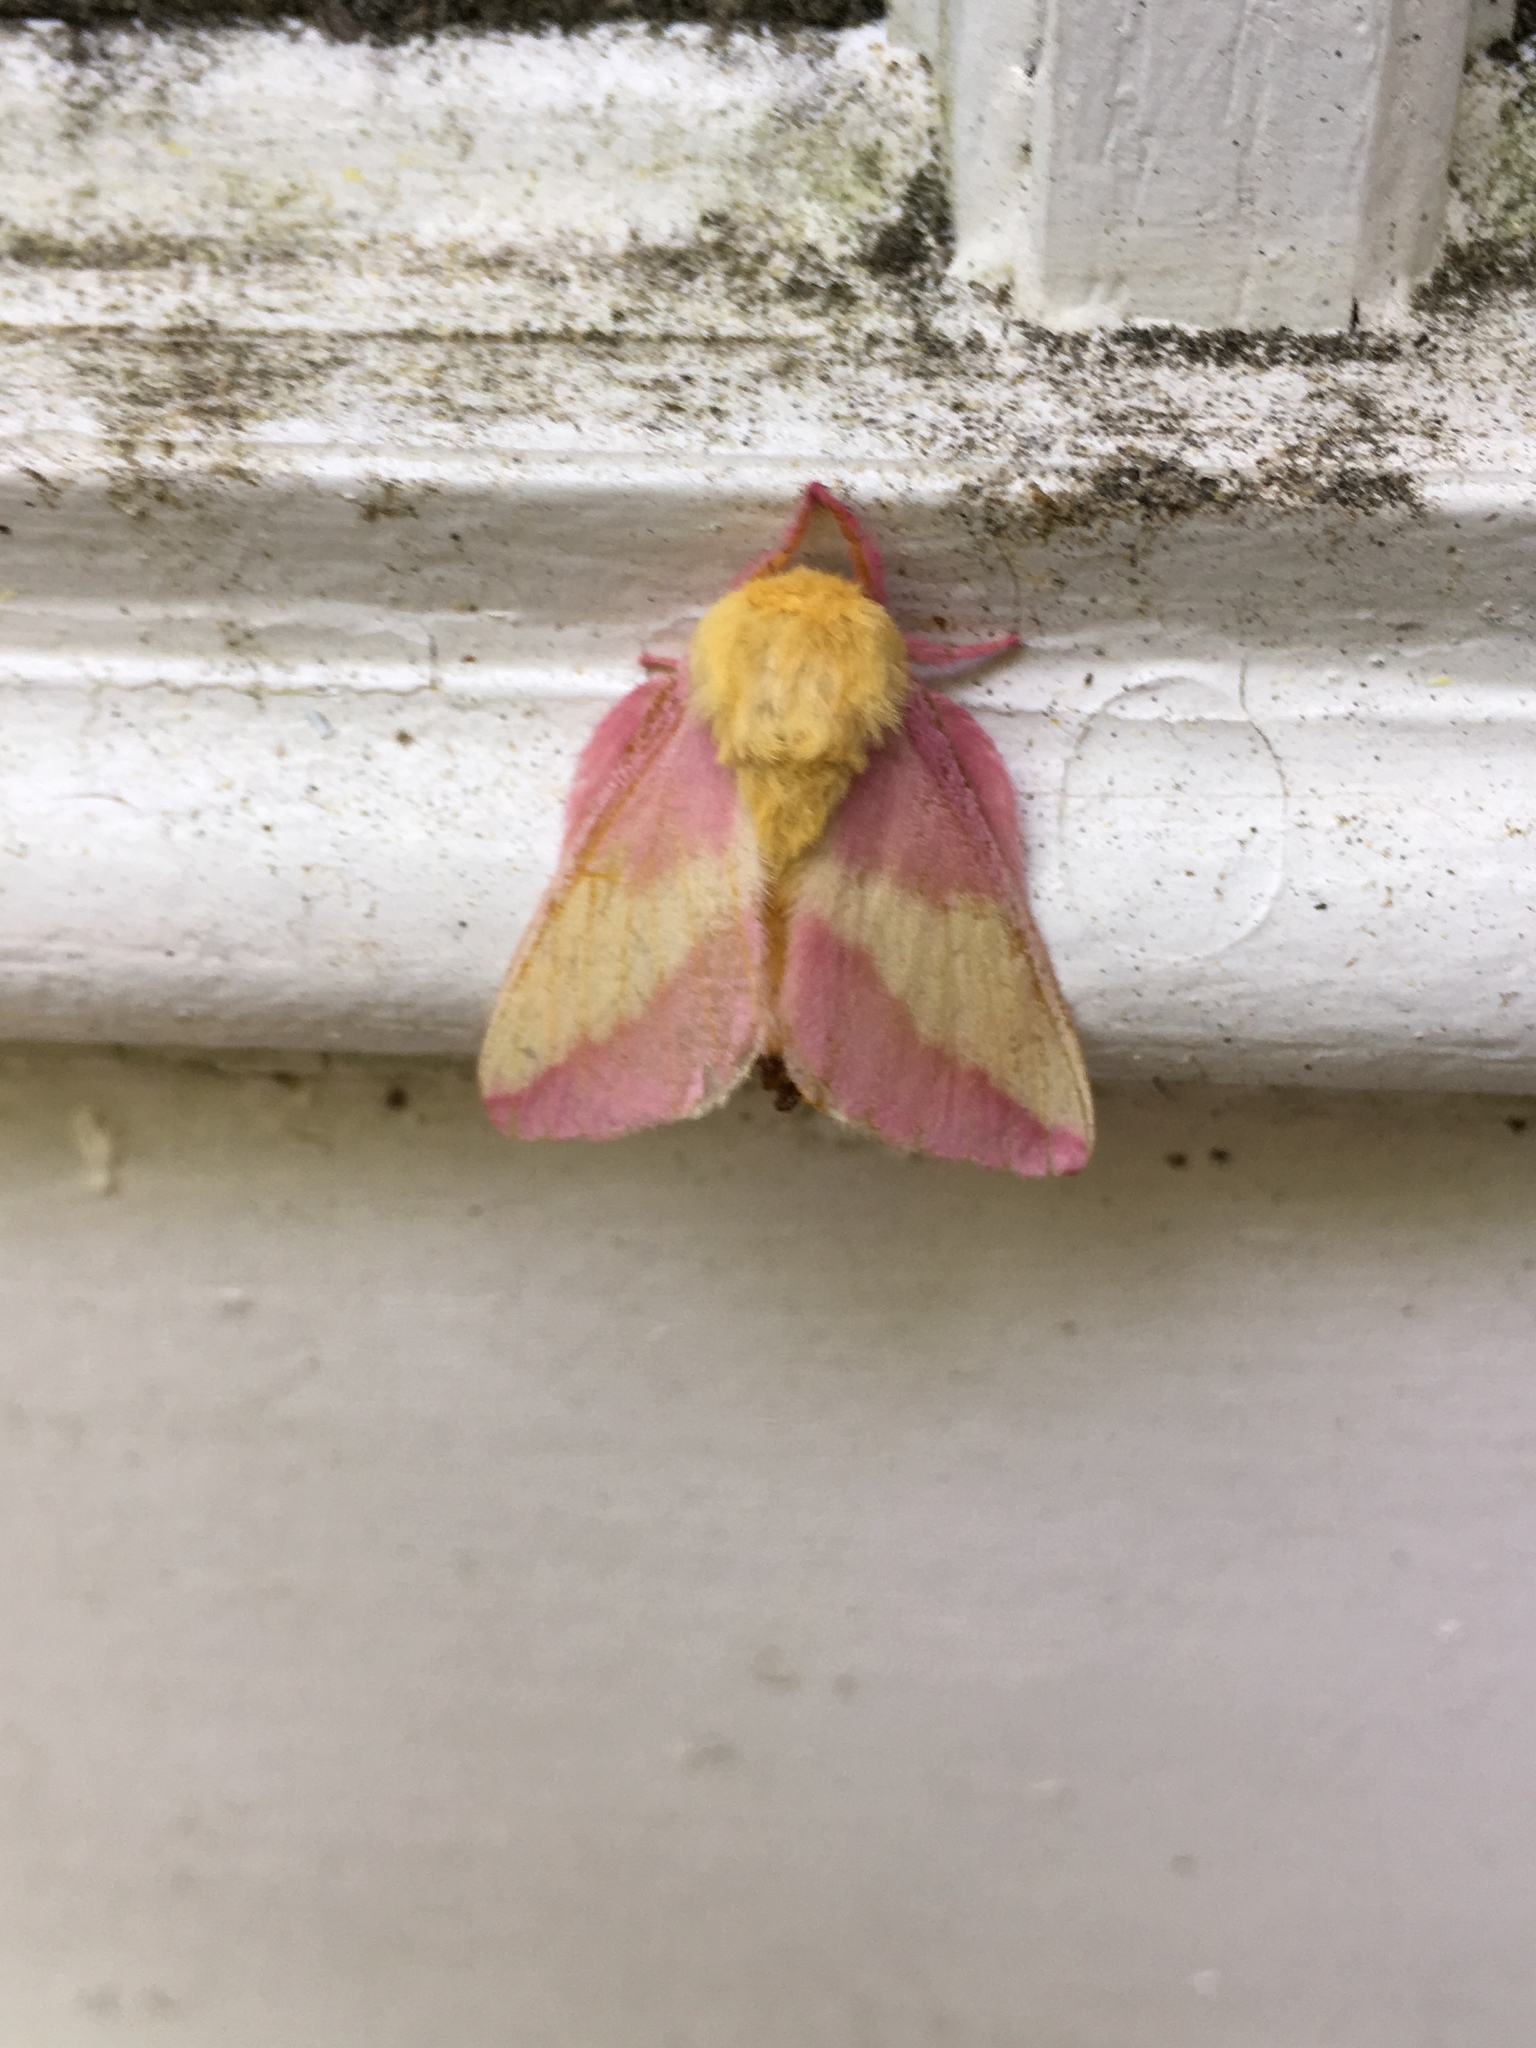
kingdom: Animalia
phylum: Arthropoda
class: Insecta
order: Lepidoptera
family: Saturniidae
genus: Dryocampa
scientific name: Dryocampa rubicunda
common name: Rosy maple moth
